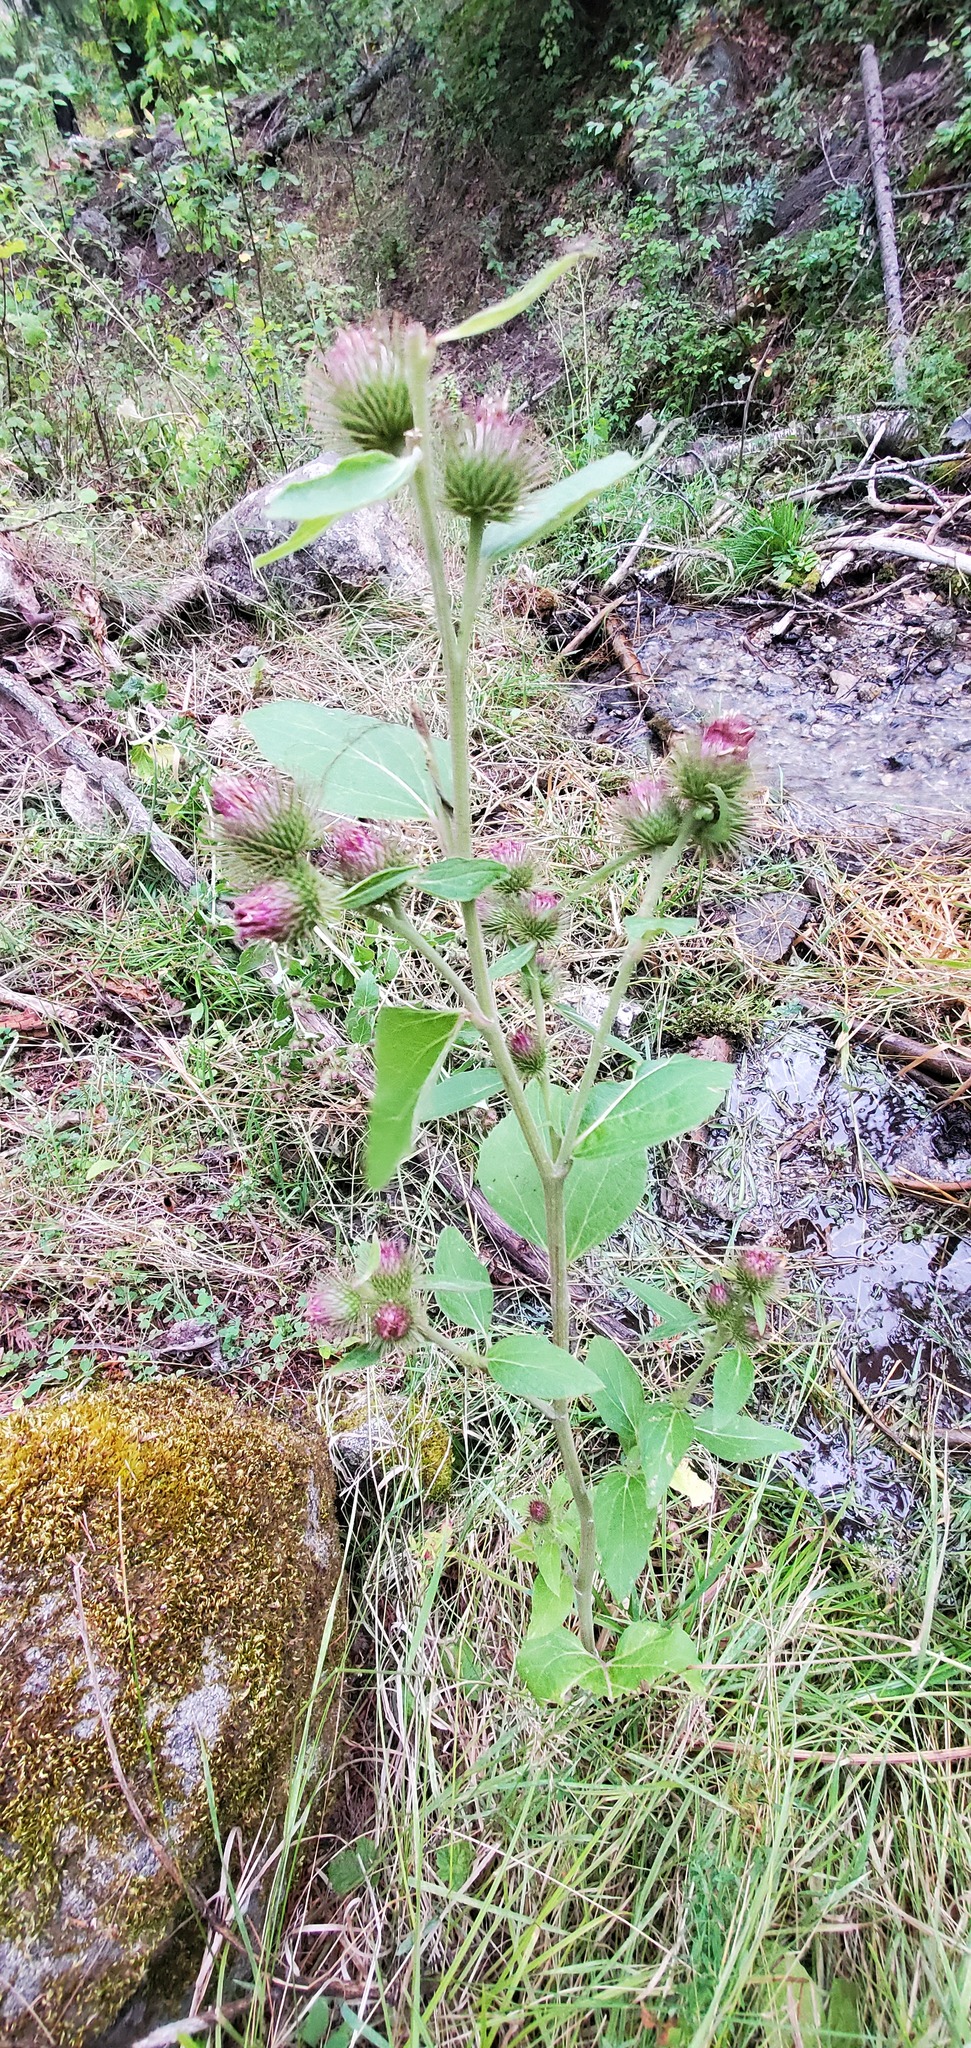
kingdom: Plantae
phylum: Tracheophyta
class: Magnoliopsida
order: Asterales
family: Asteraceae
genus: Arctium
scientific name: Arctium minus
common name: Lesser burdock
